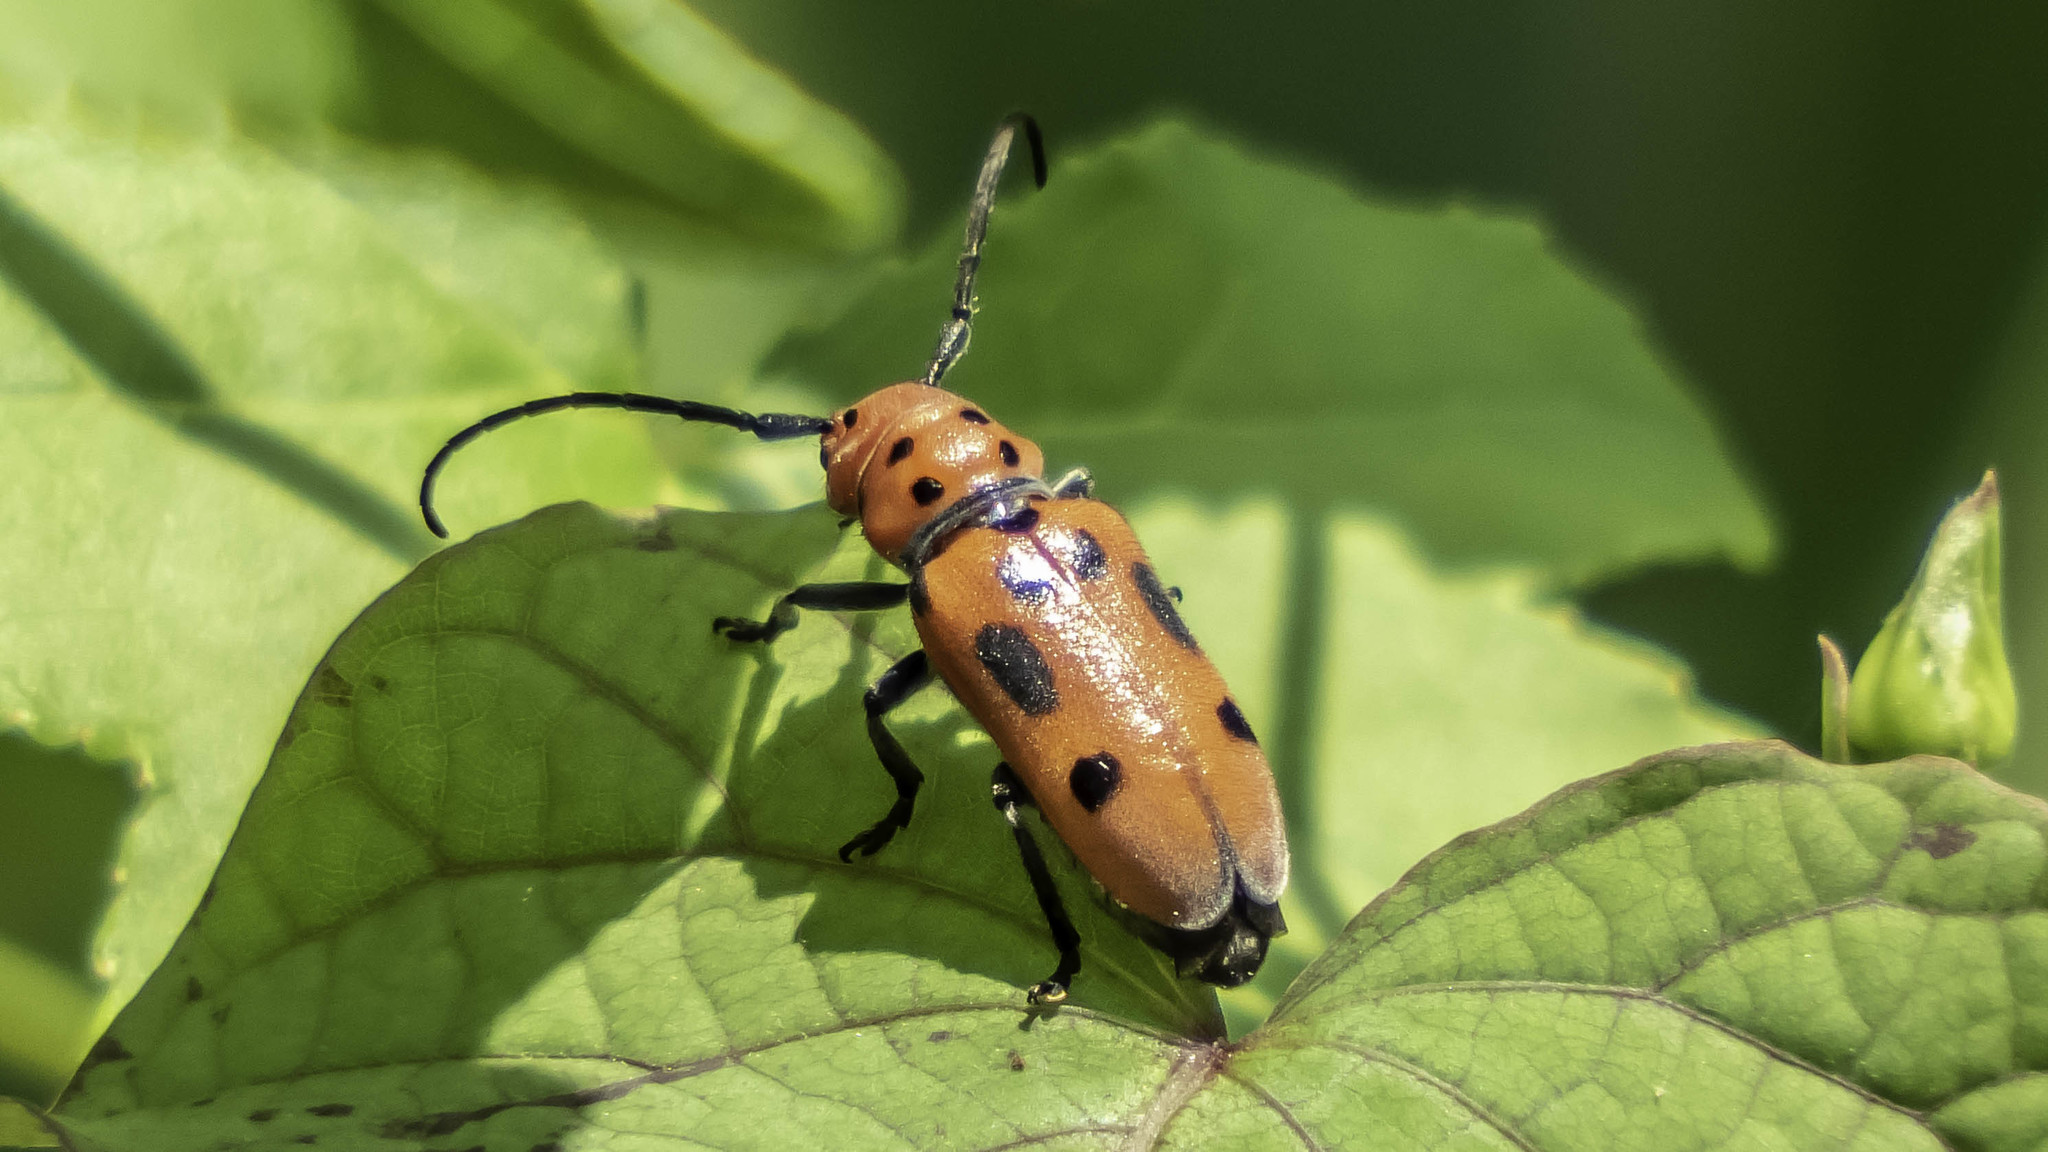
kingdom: Animalia
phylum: Arthropoda
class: Insecta
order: Coleoptera
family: Cerambycidae
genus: Tetraopes
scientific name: Tetraopes tetrophthalmus
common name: Red milkweed beetle
